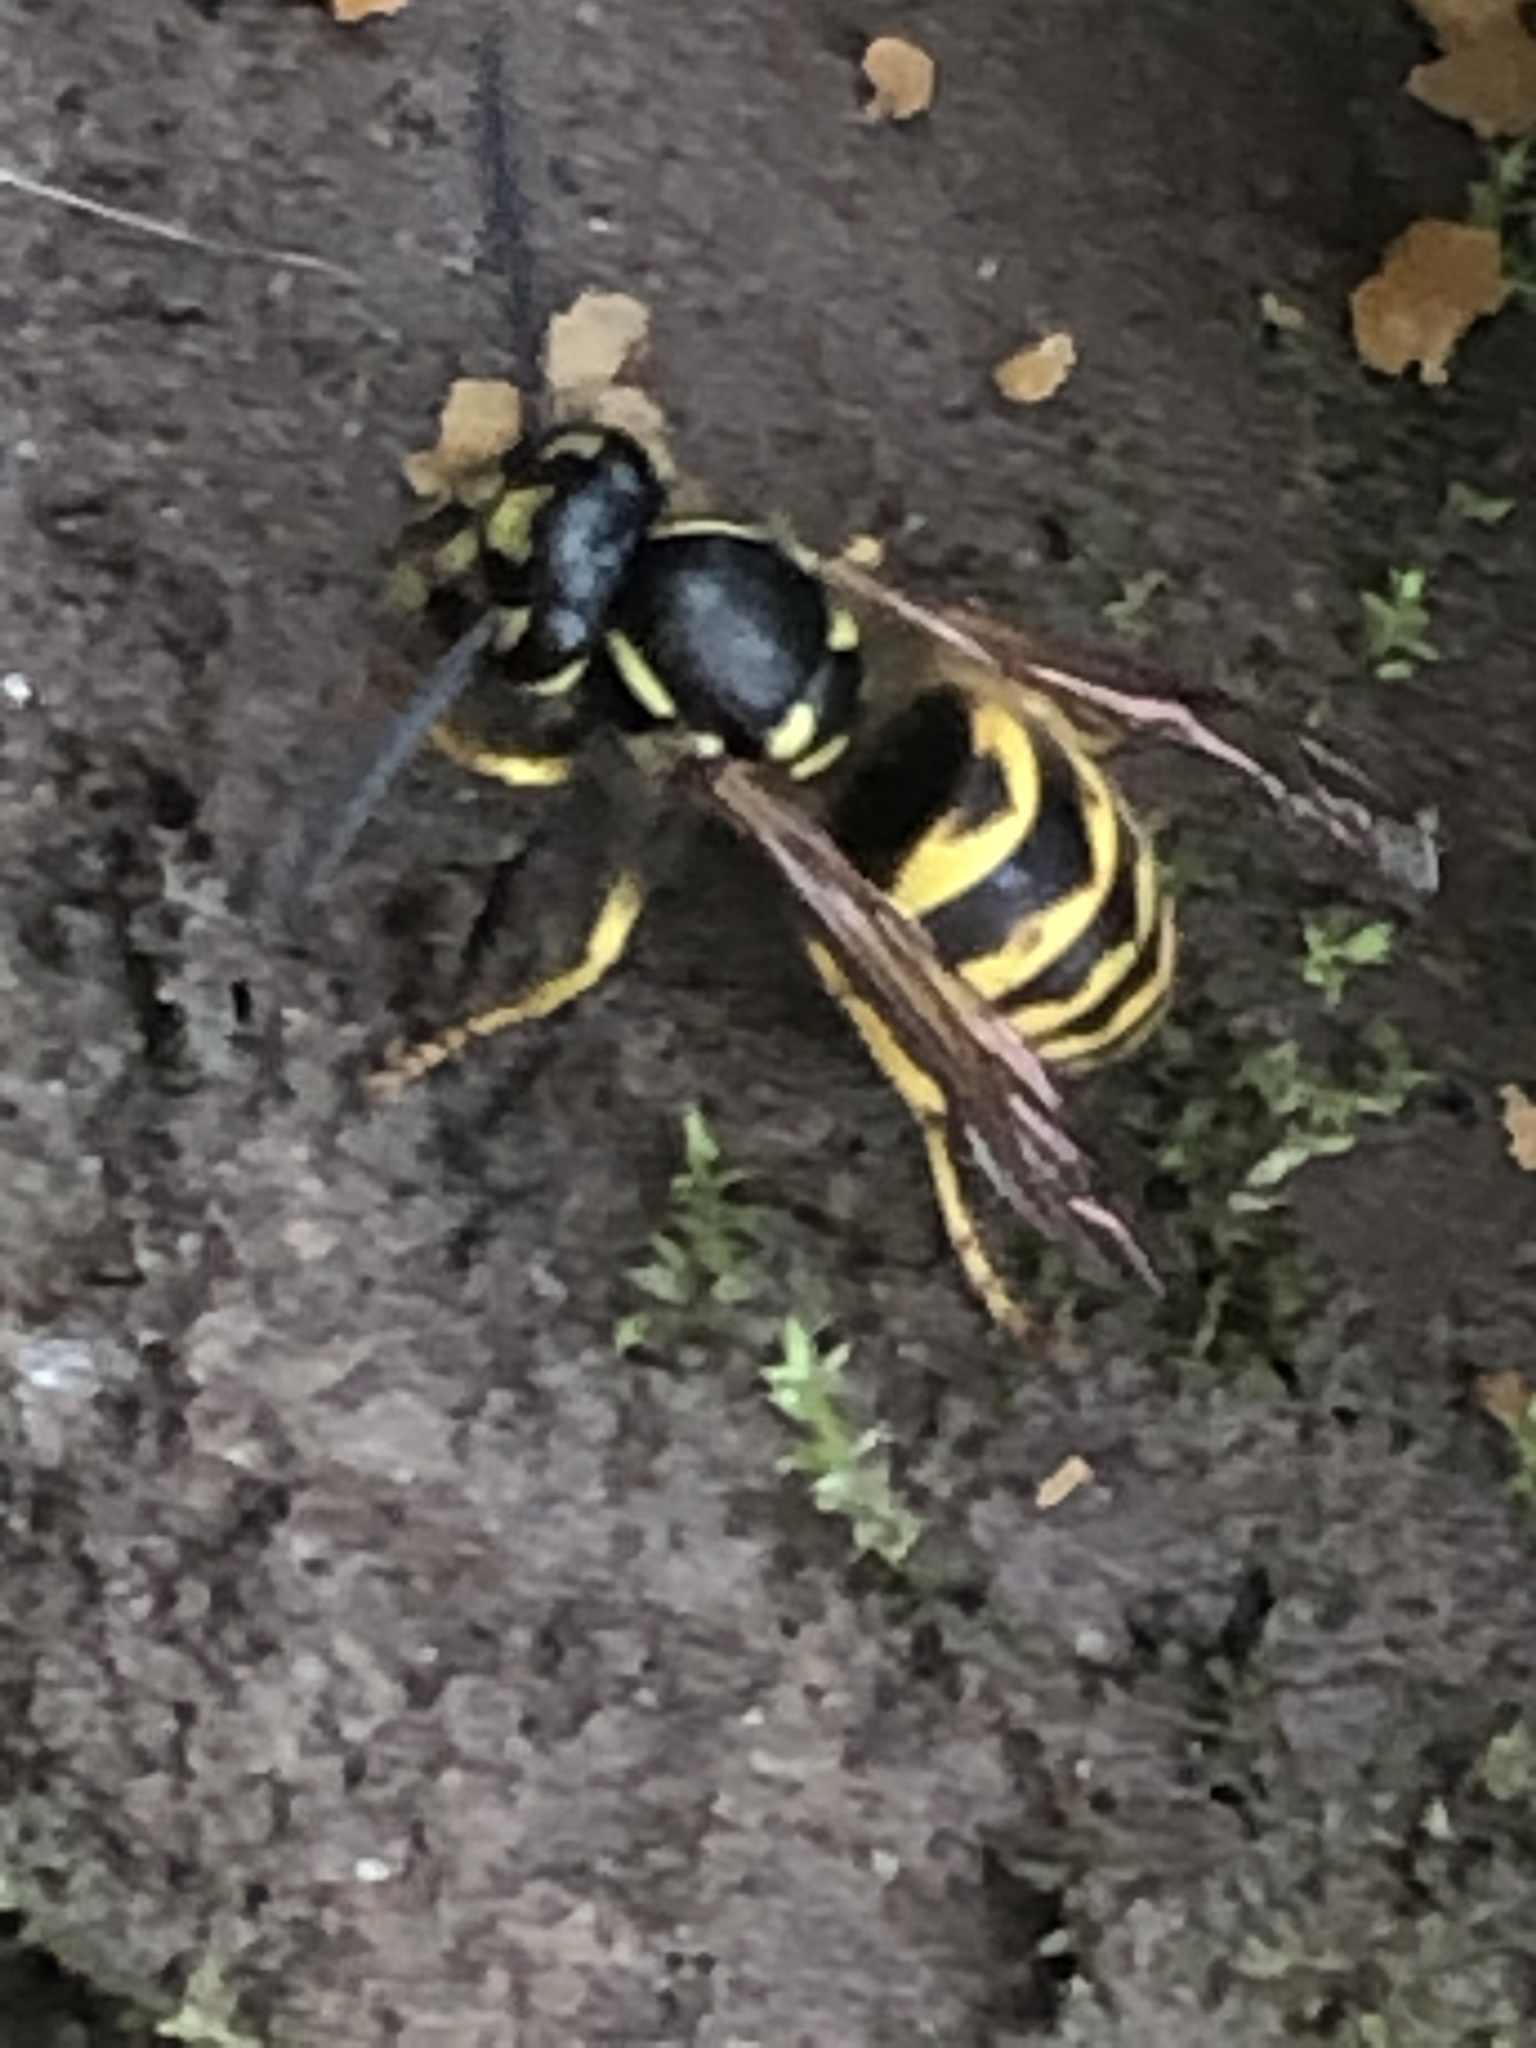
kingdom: Animalia
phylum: Arthropoda
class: Insecta
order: Hymenoptera
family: Vespidae
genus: Vespula
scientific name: Vespula alascensis
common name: Alaska yellowjacket
